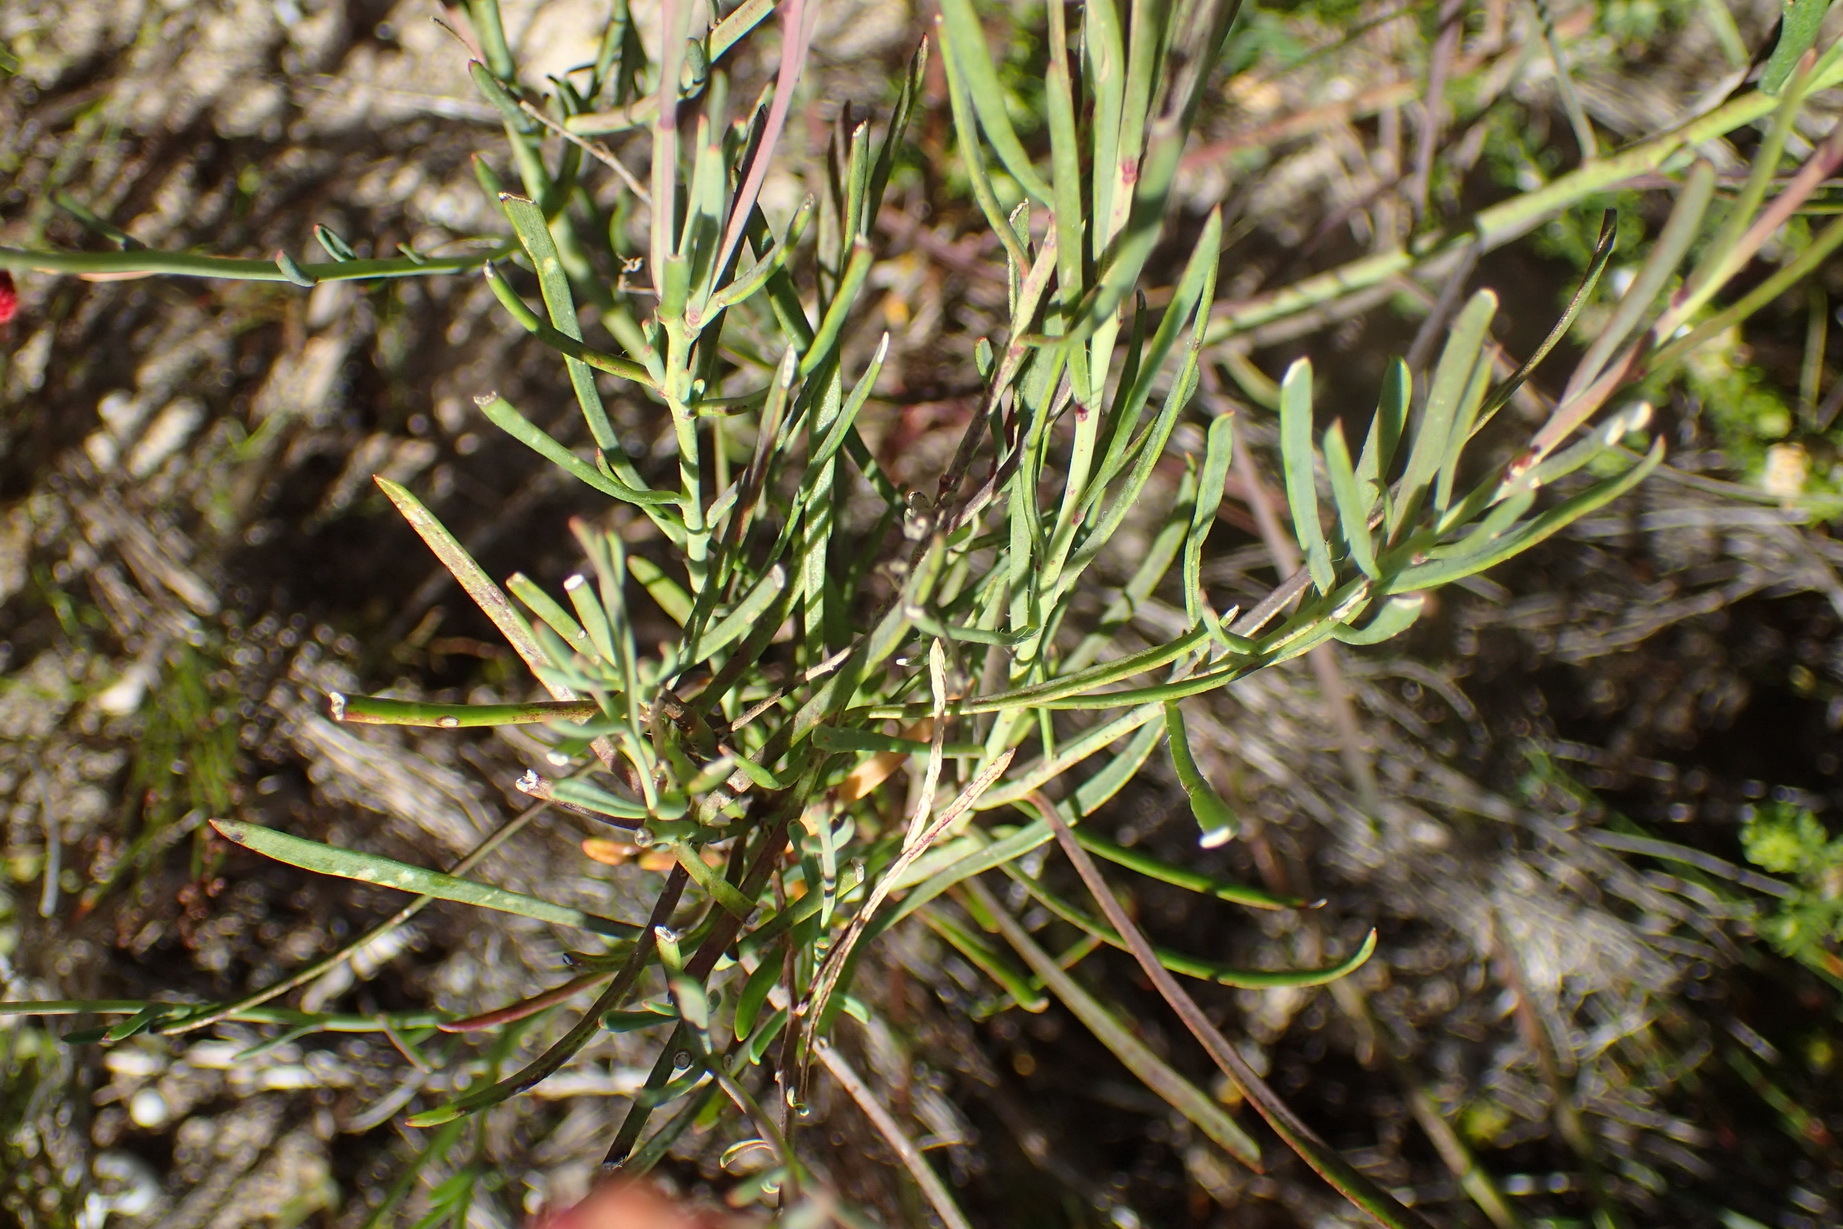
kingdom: Plantae
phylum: Tracheophyta
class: Magnoliopsida
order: Brassicales
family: Brassicaceae
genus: Heliophila
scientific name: Heliophila linearis
